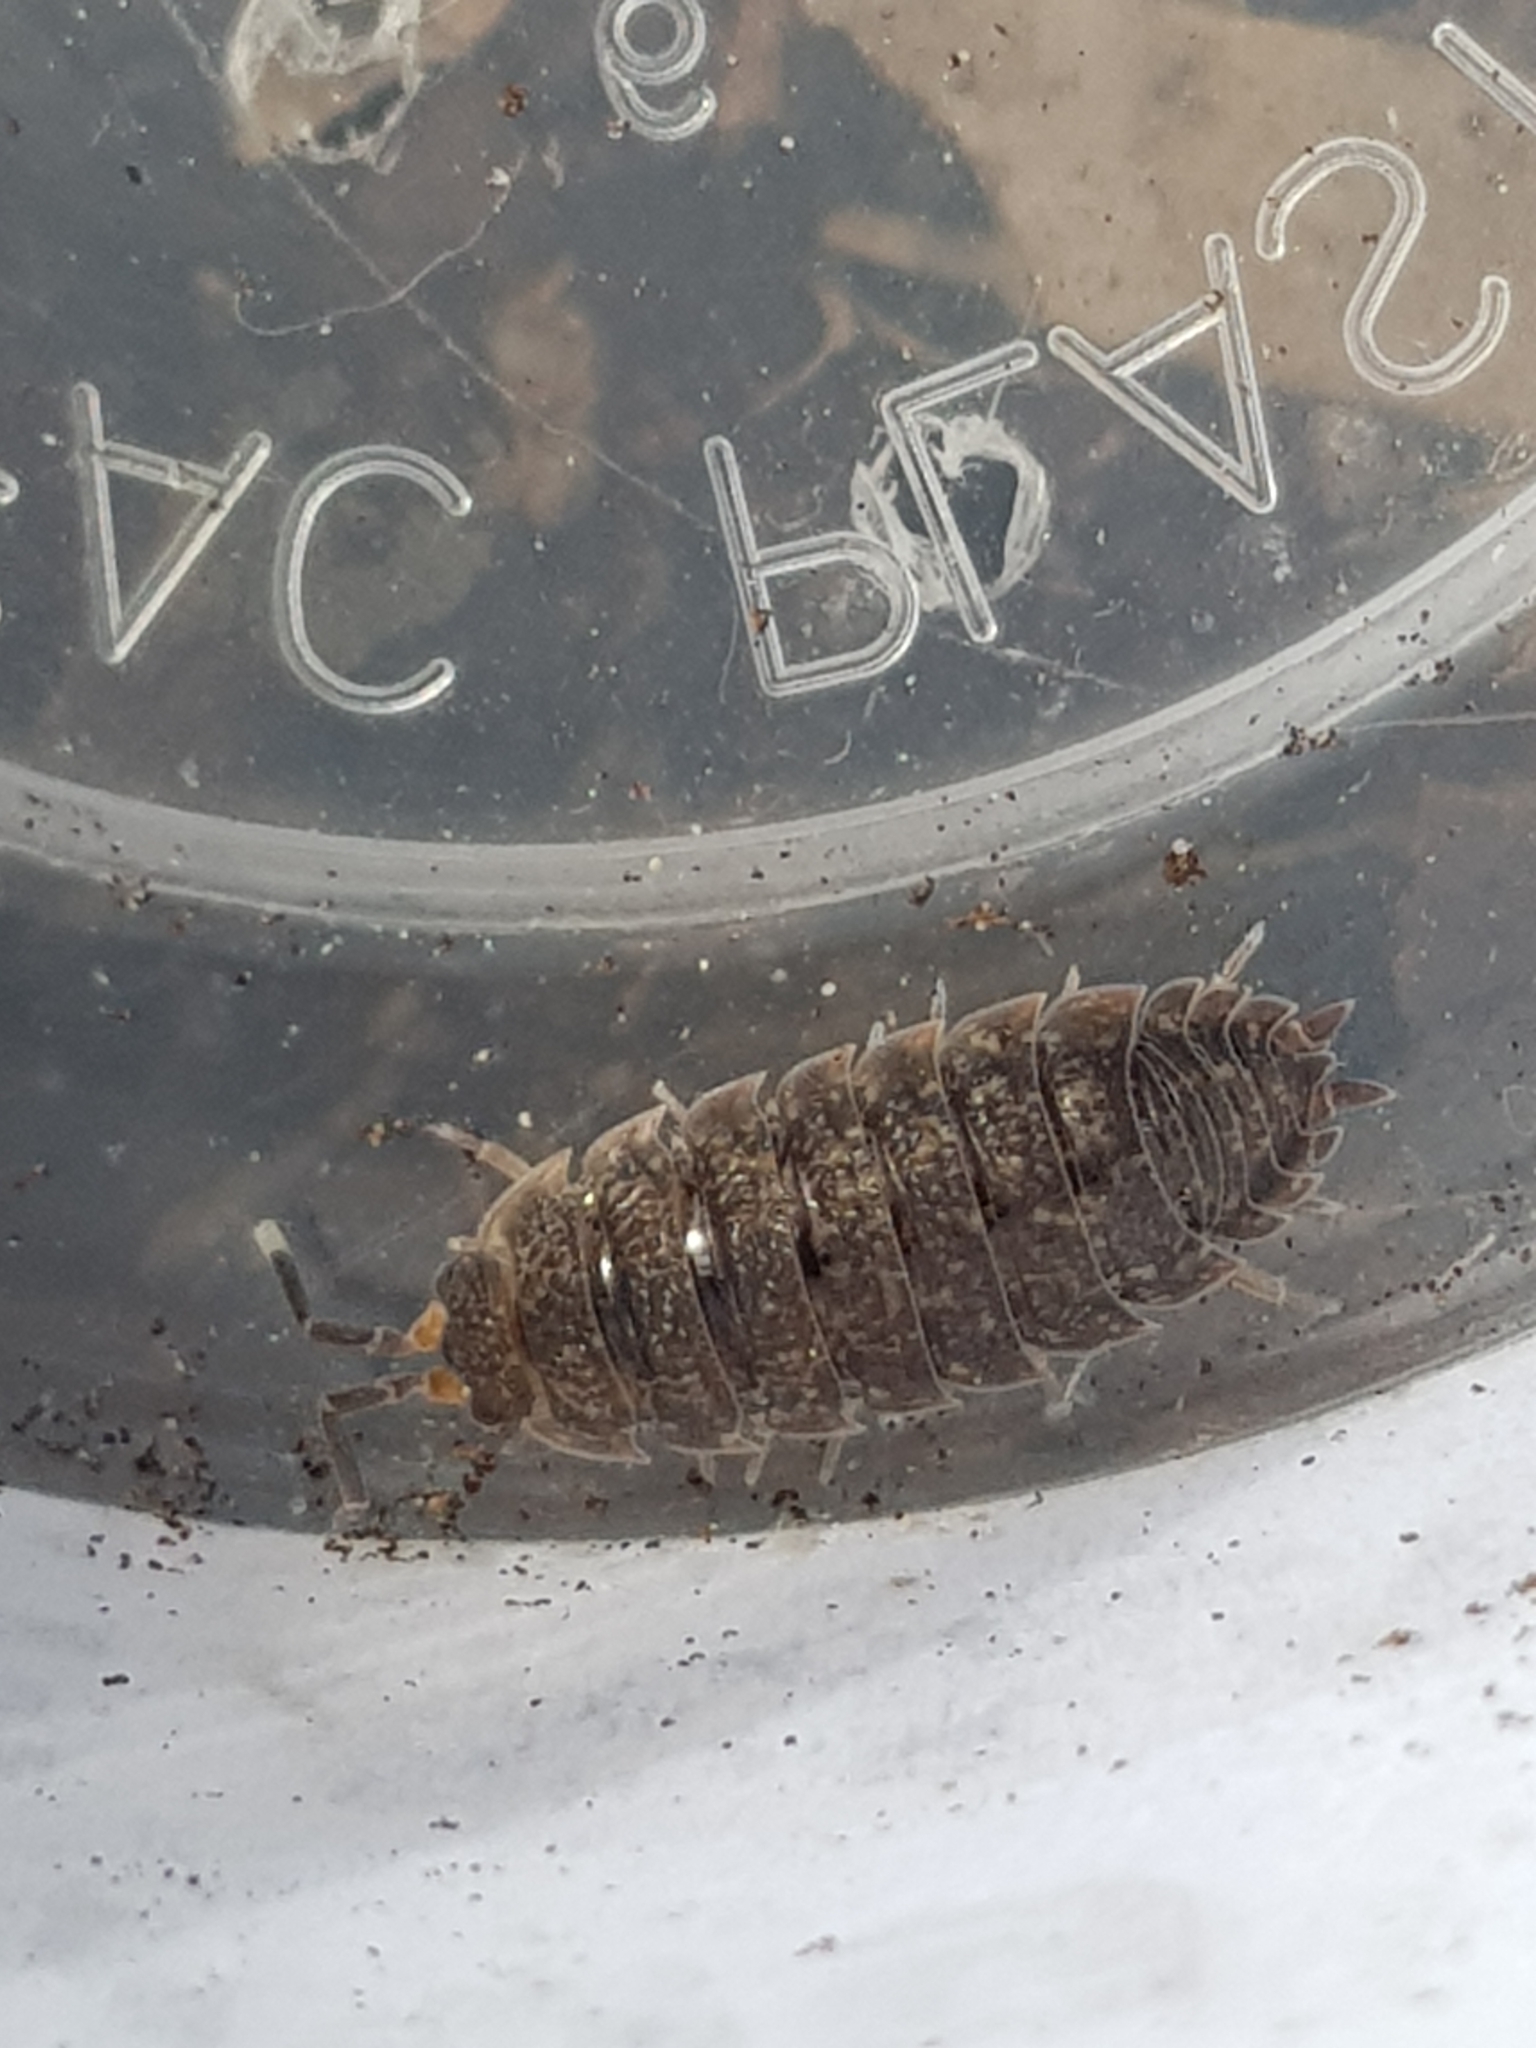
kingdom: Animalia
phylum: Arthropoda
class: Malacostraca
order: Isopoda
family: Porcellionidae
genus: Porcellio
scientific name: Porcellio scaber
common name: Common rough woodlouse
